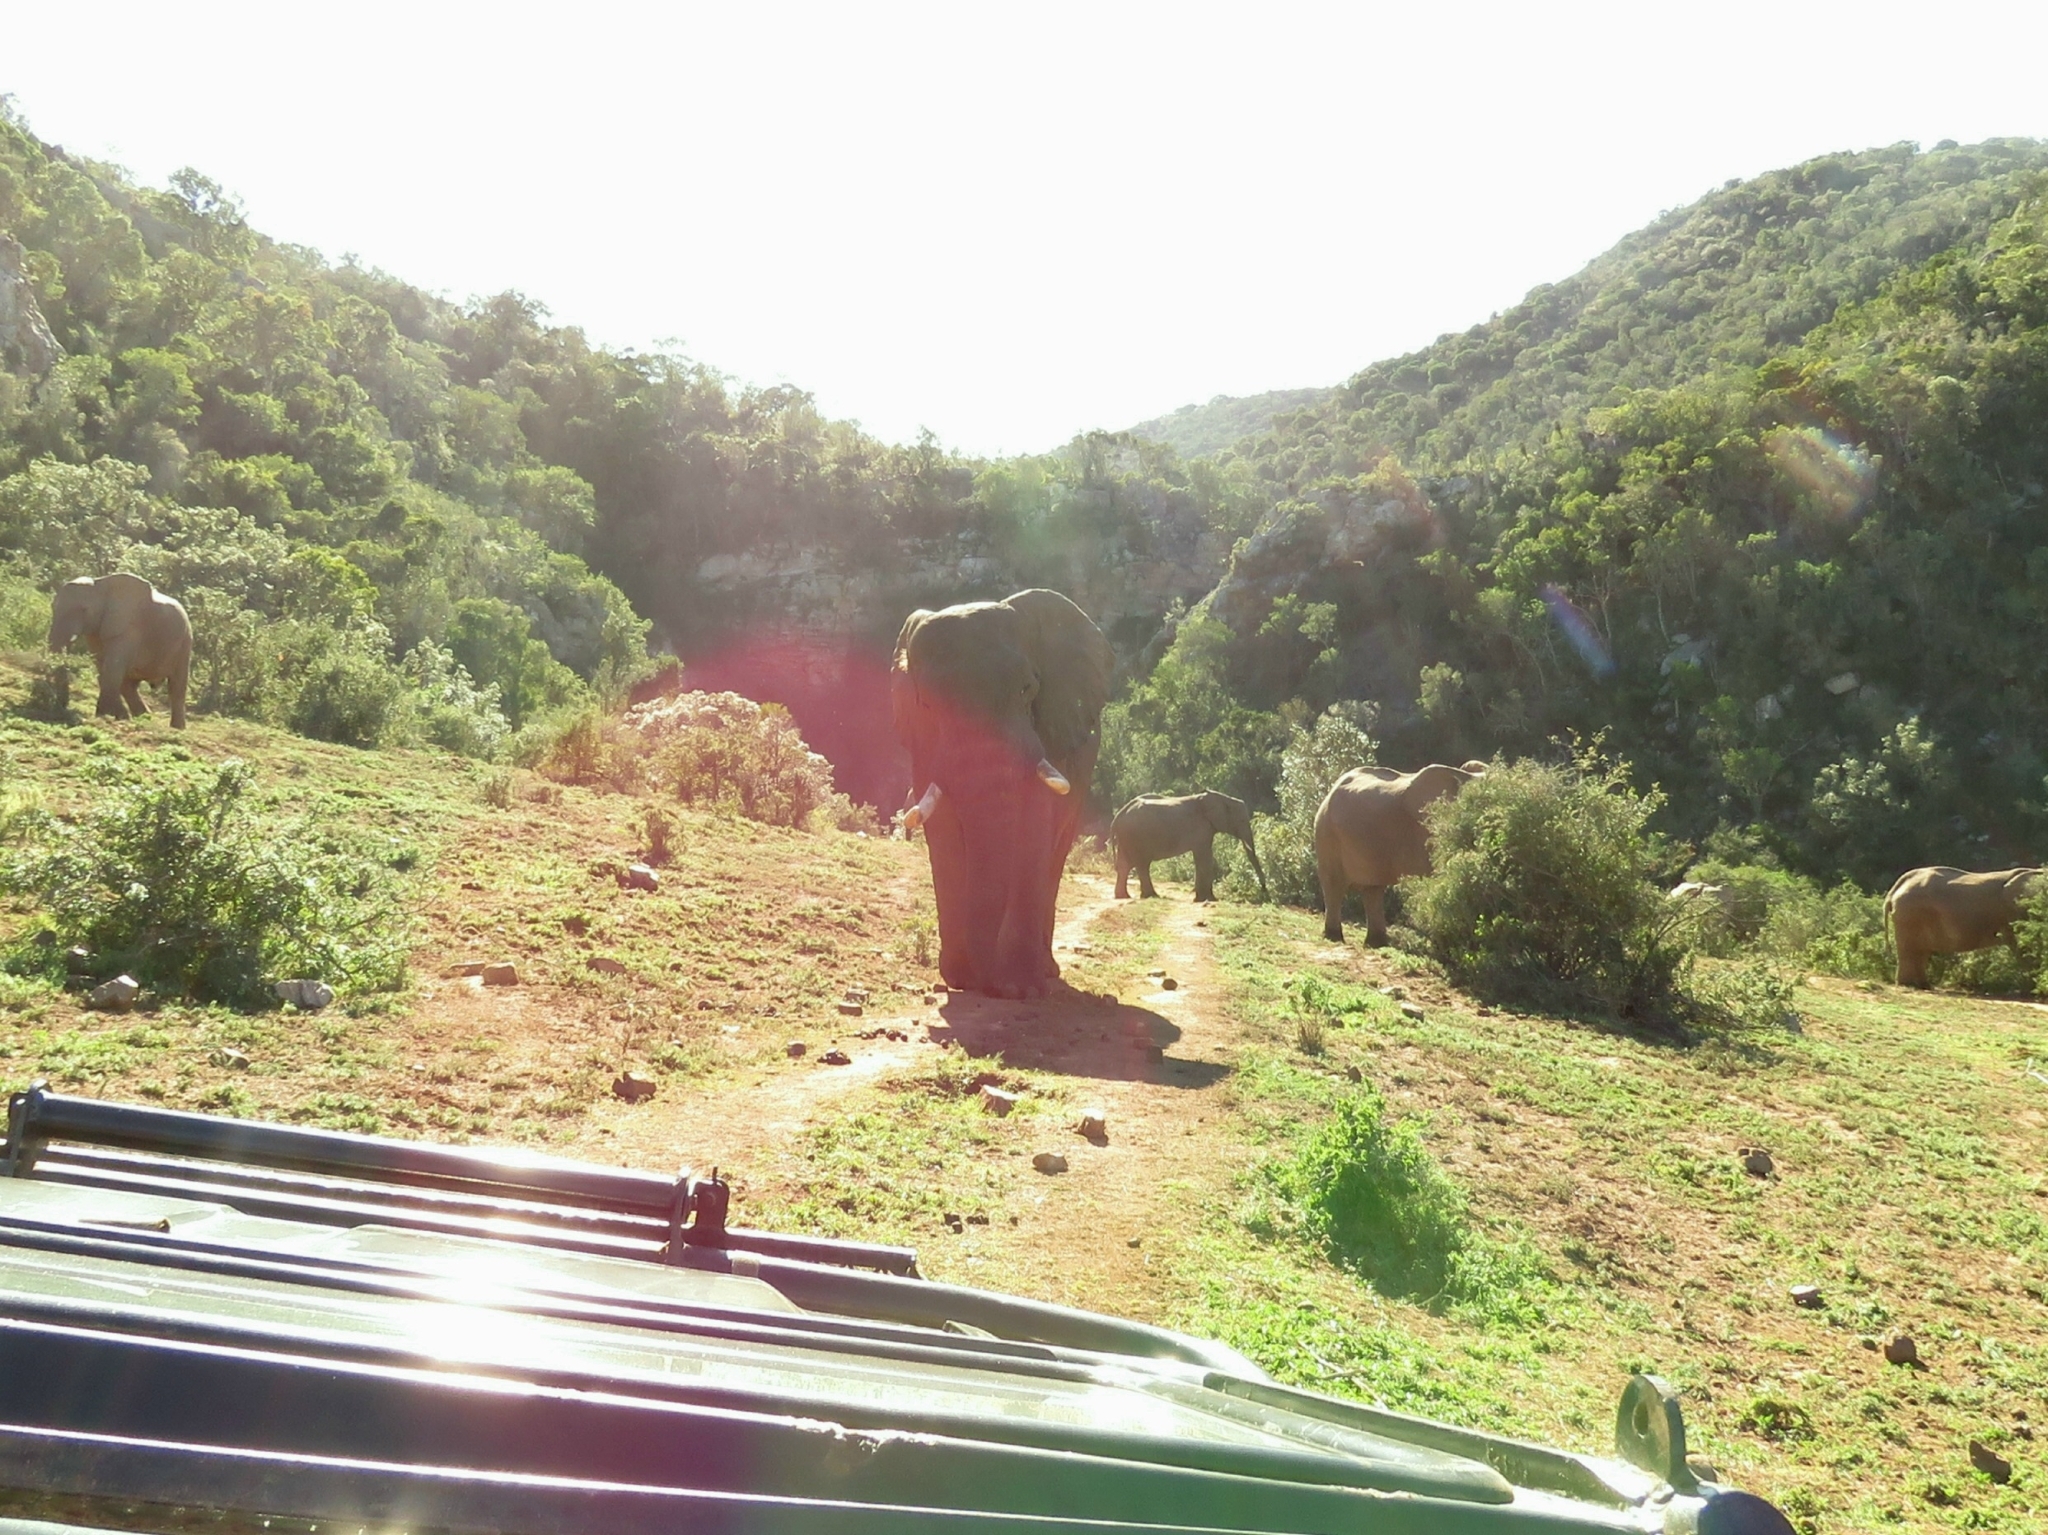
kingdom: Animalia
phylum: Chordata
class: Mammalia
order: Proboscidea
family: Elephantidae
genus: Loxodonta
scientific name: Loxodonta africana
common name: African elephant
